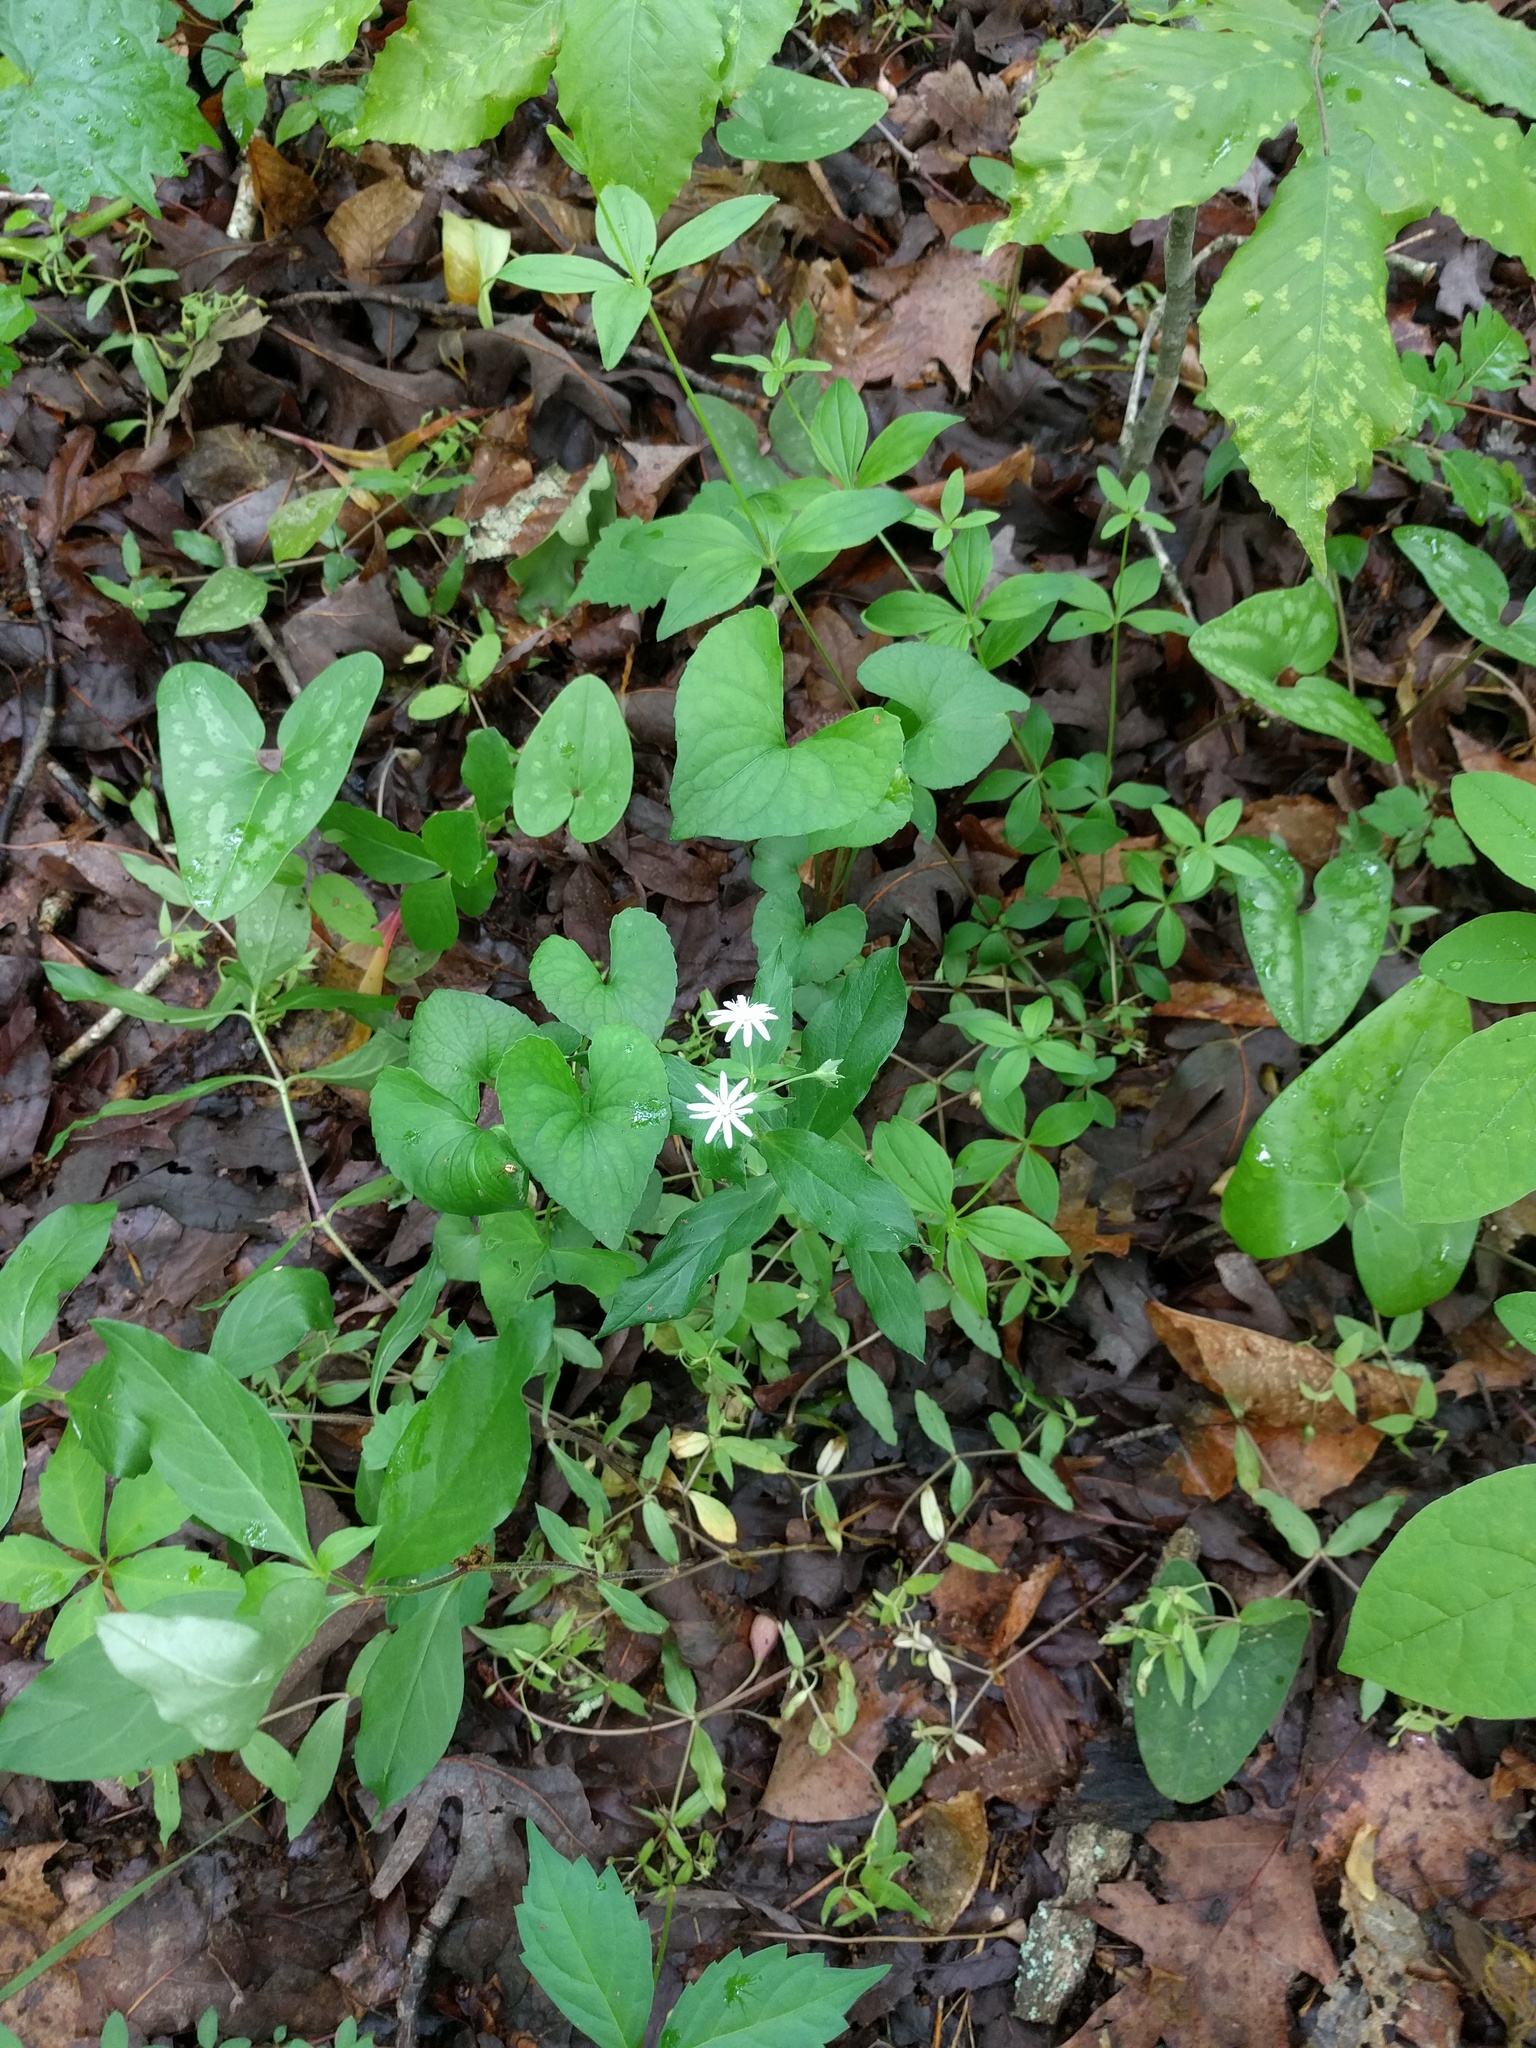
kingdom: Plantae
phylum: Tracheophyta
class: Magnoliopsida
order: Caryophyllales
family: Caryophyllaceae
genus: Stellaria
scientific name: Stellaria pubera
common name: Star chickweed
